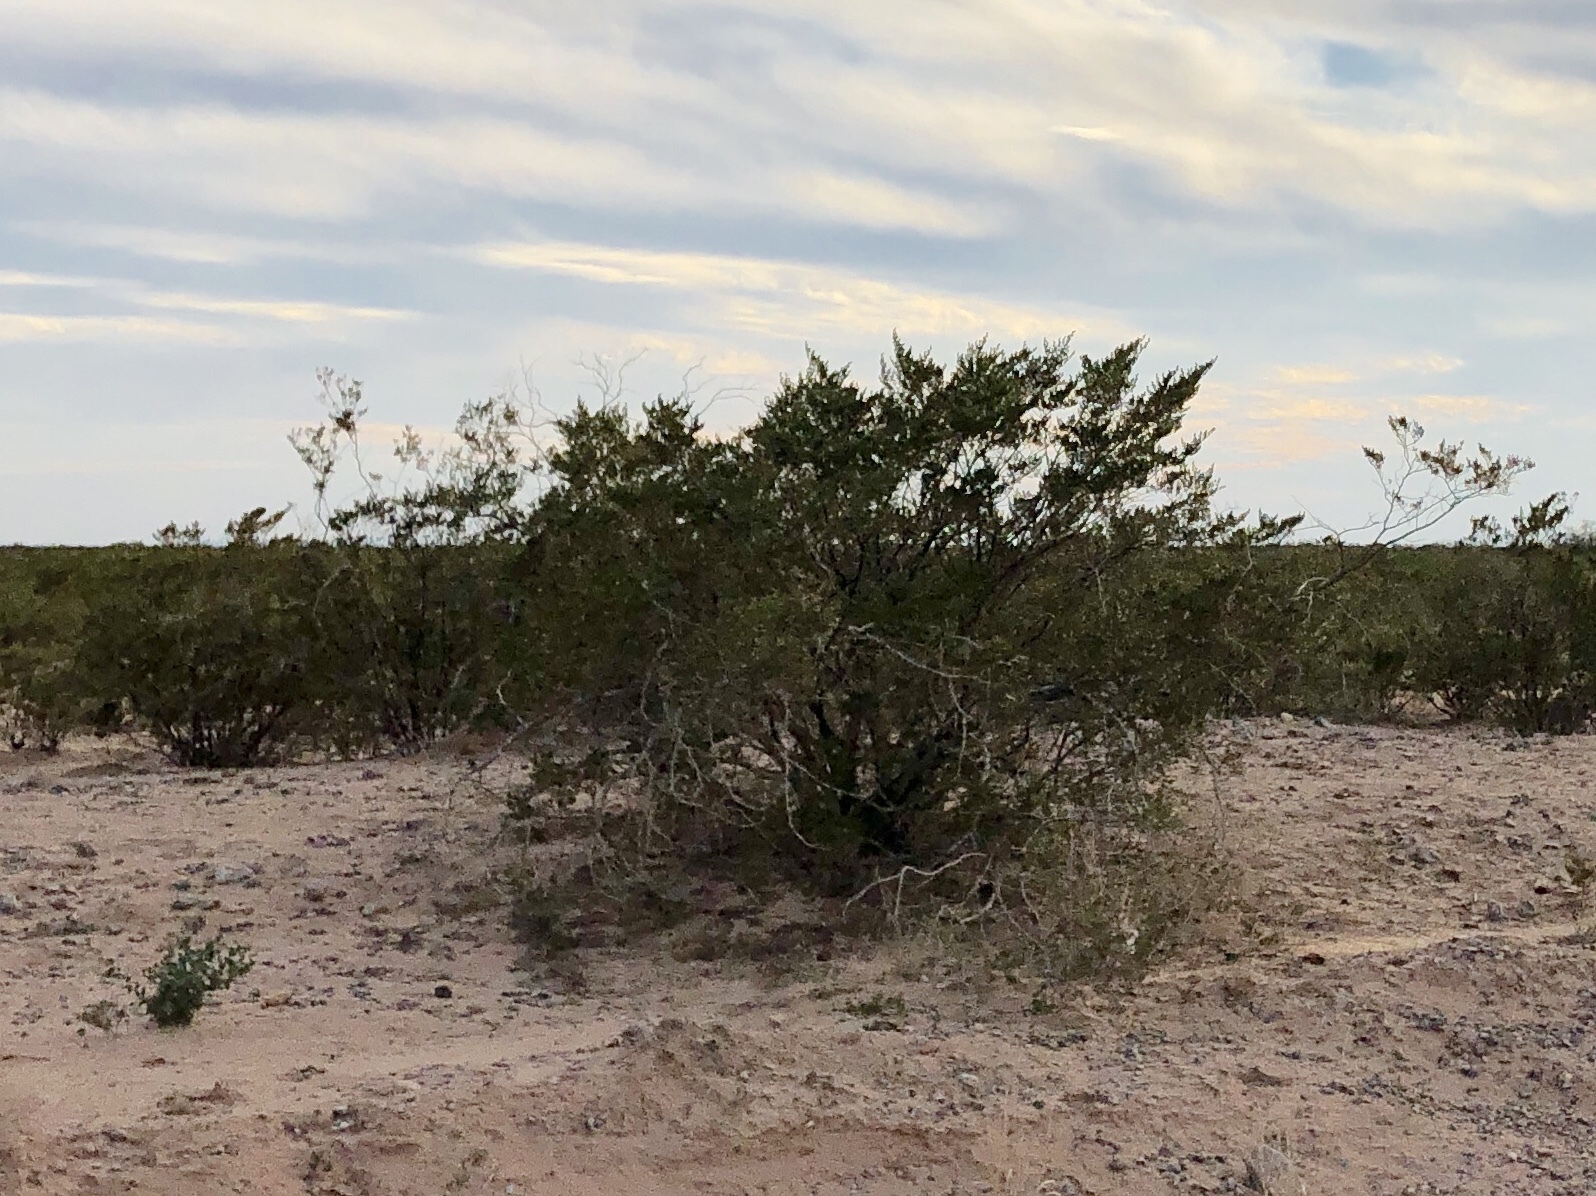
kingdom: Plantae
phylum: Tracheophyta
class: Magnoliopsida
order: Zygophyllales
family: Zygophyllaceae
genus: Larrea
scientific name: Larrea tridentata
